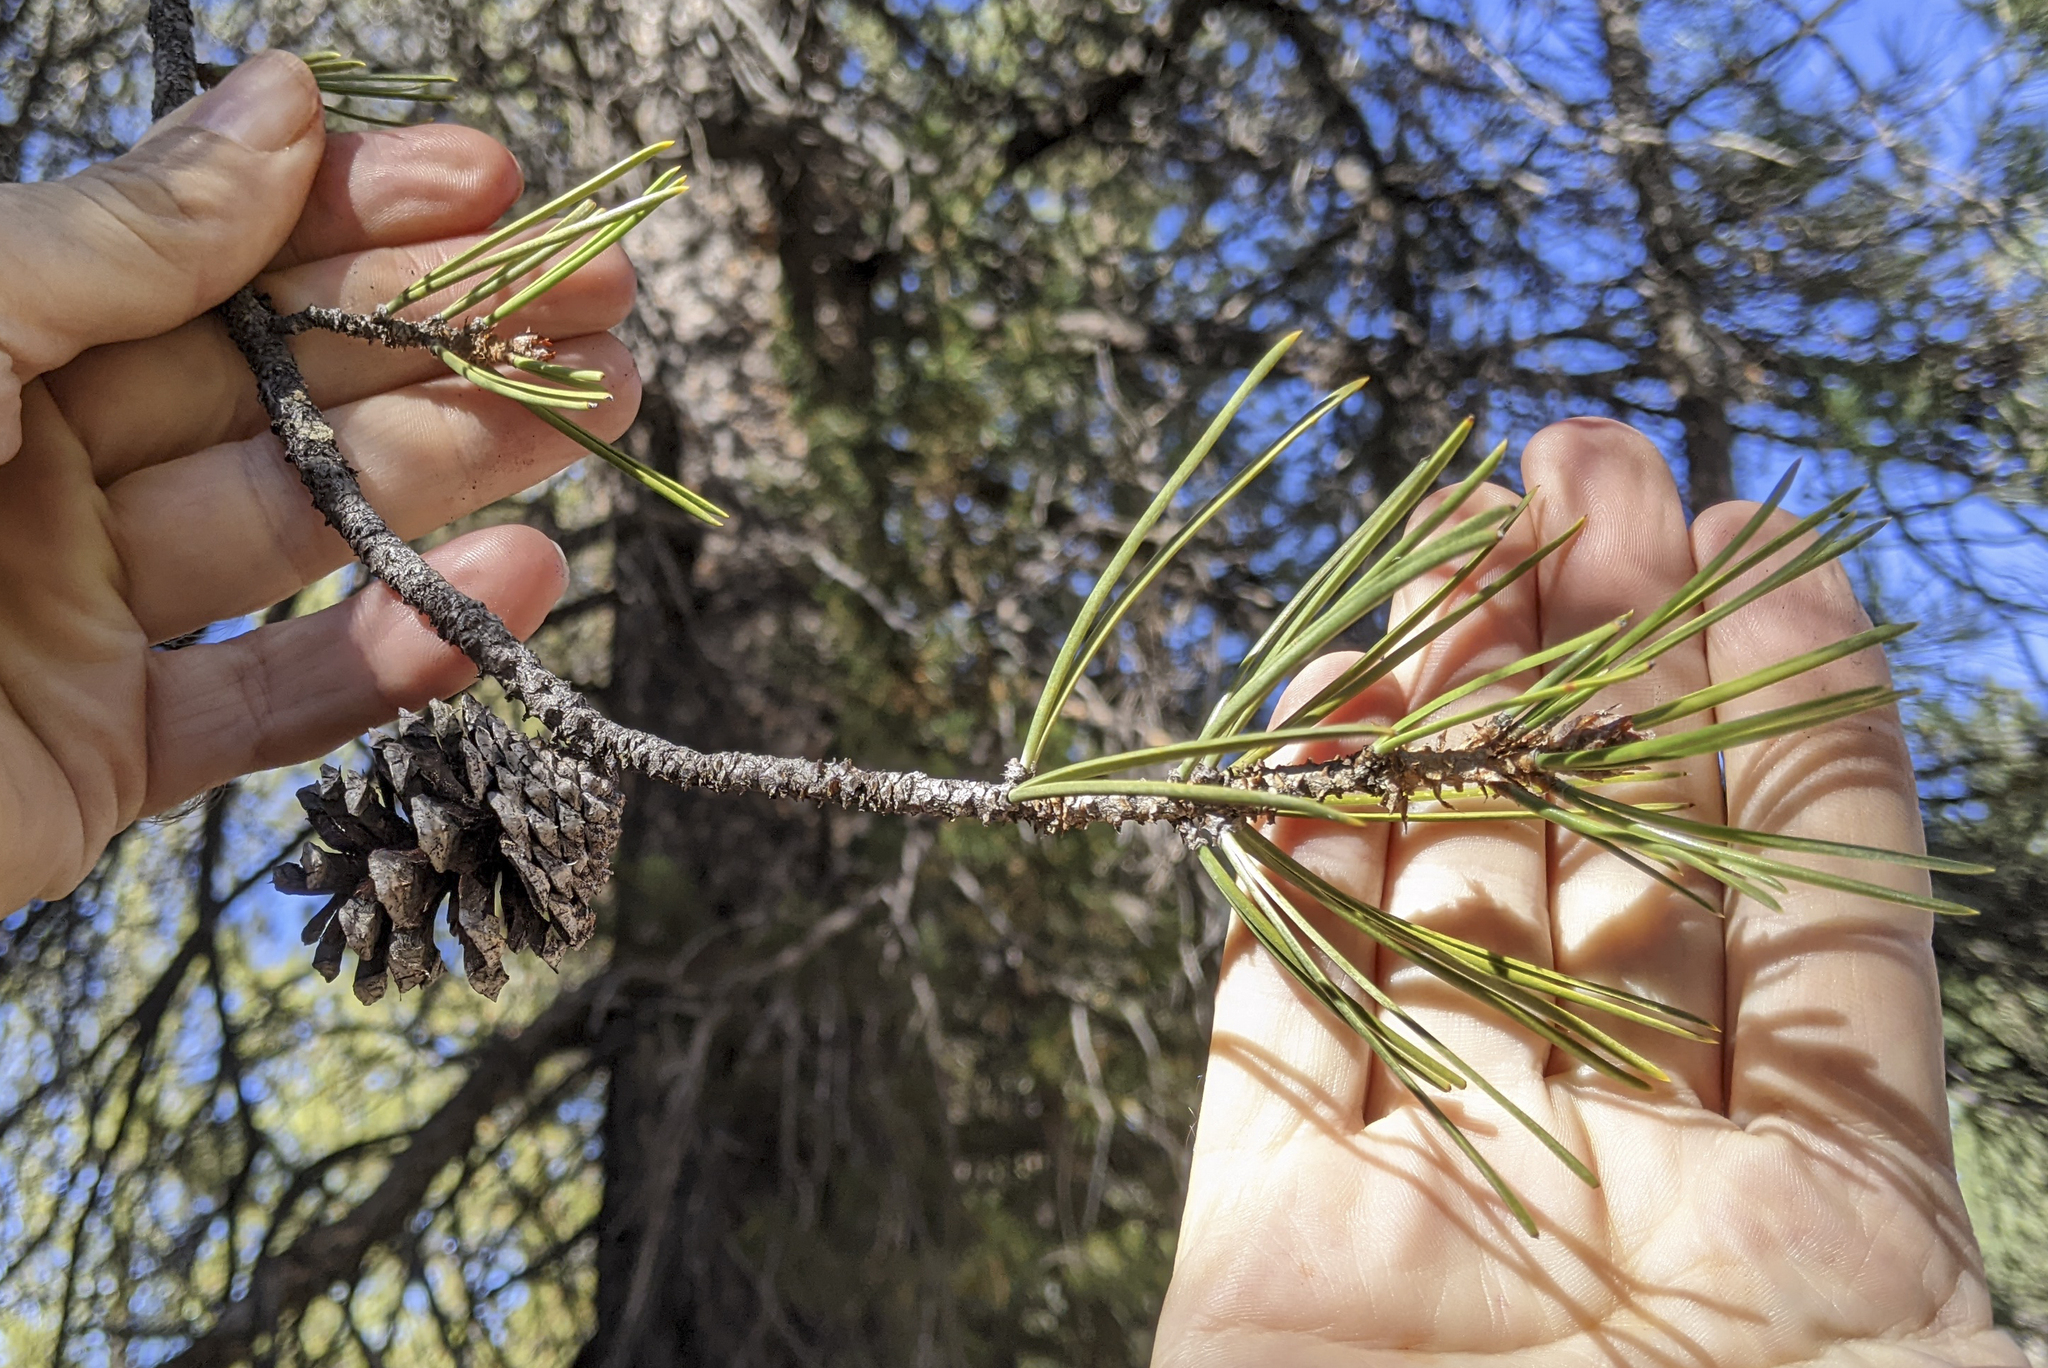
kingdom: Plantae
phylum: Tracheophyta
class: Pinopsida
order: Pinales
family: Pinaceae
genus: Pinus
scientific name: Pinus contorta
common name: Lodgepole pine
